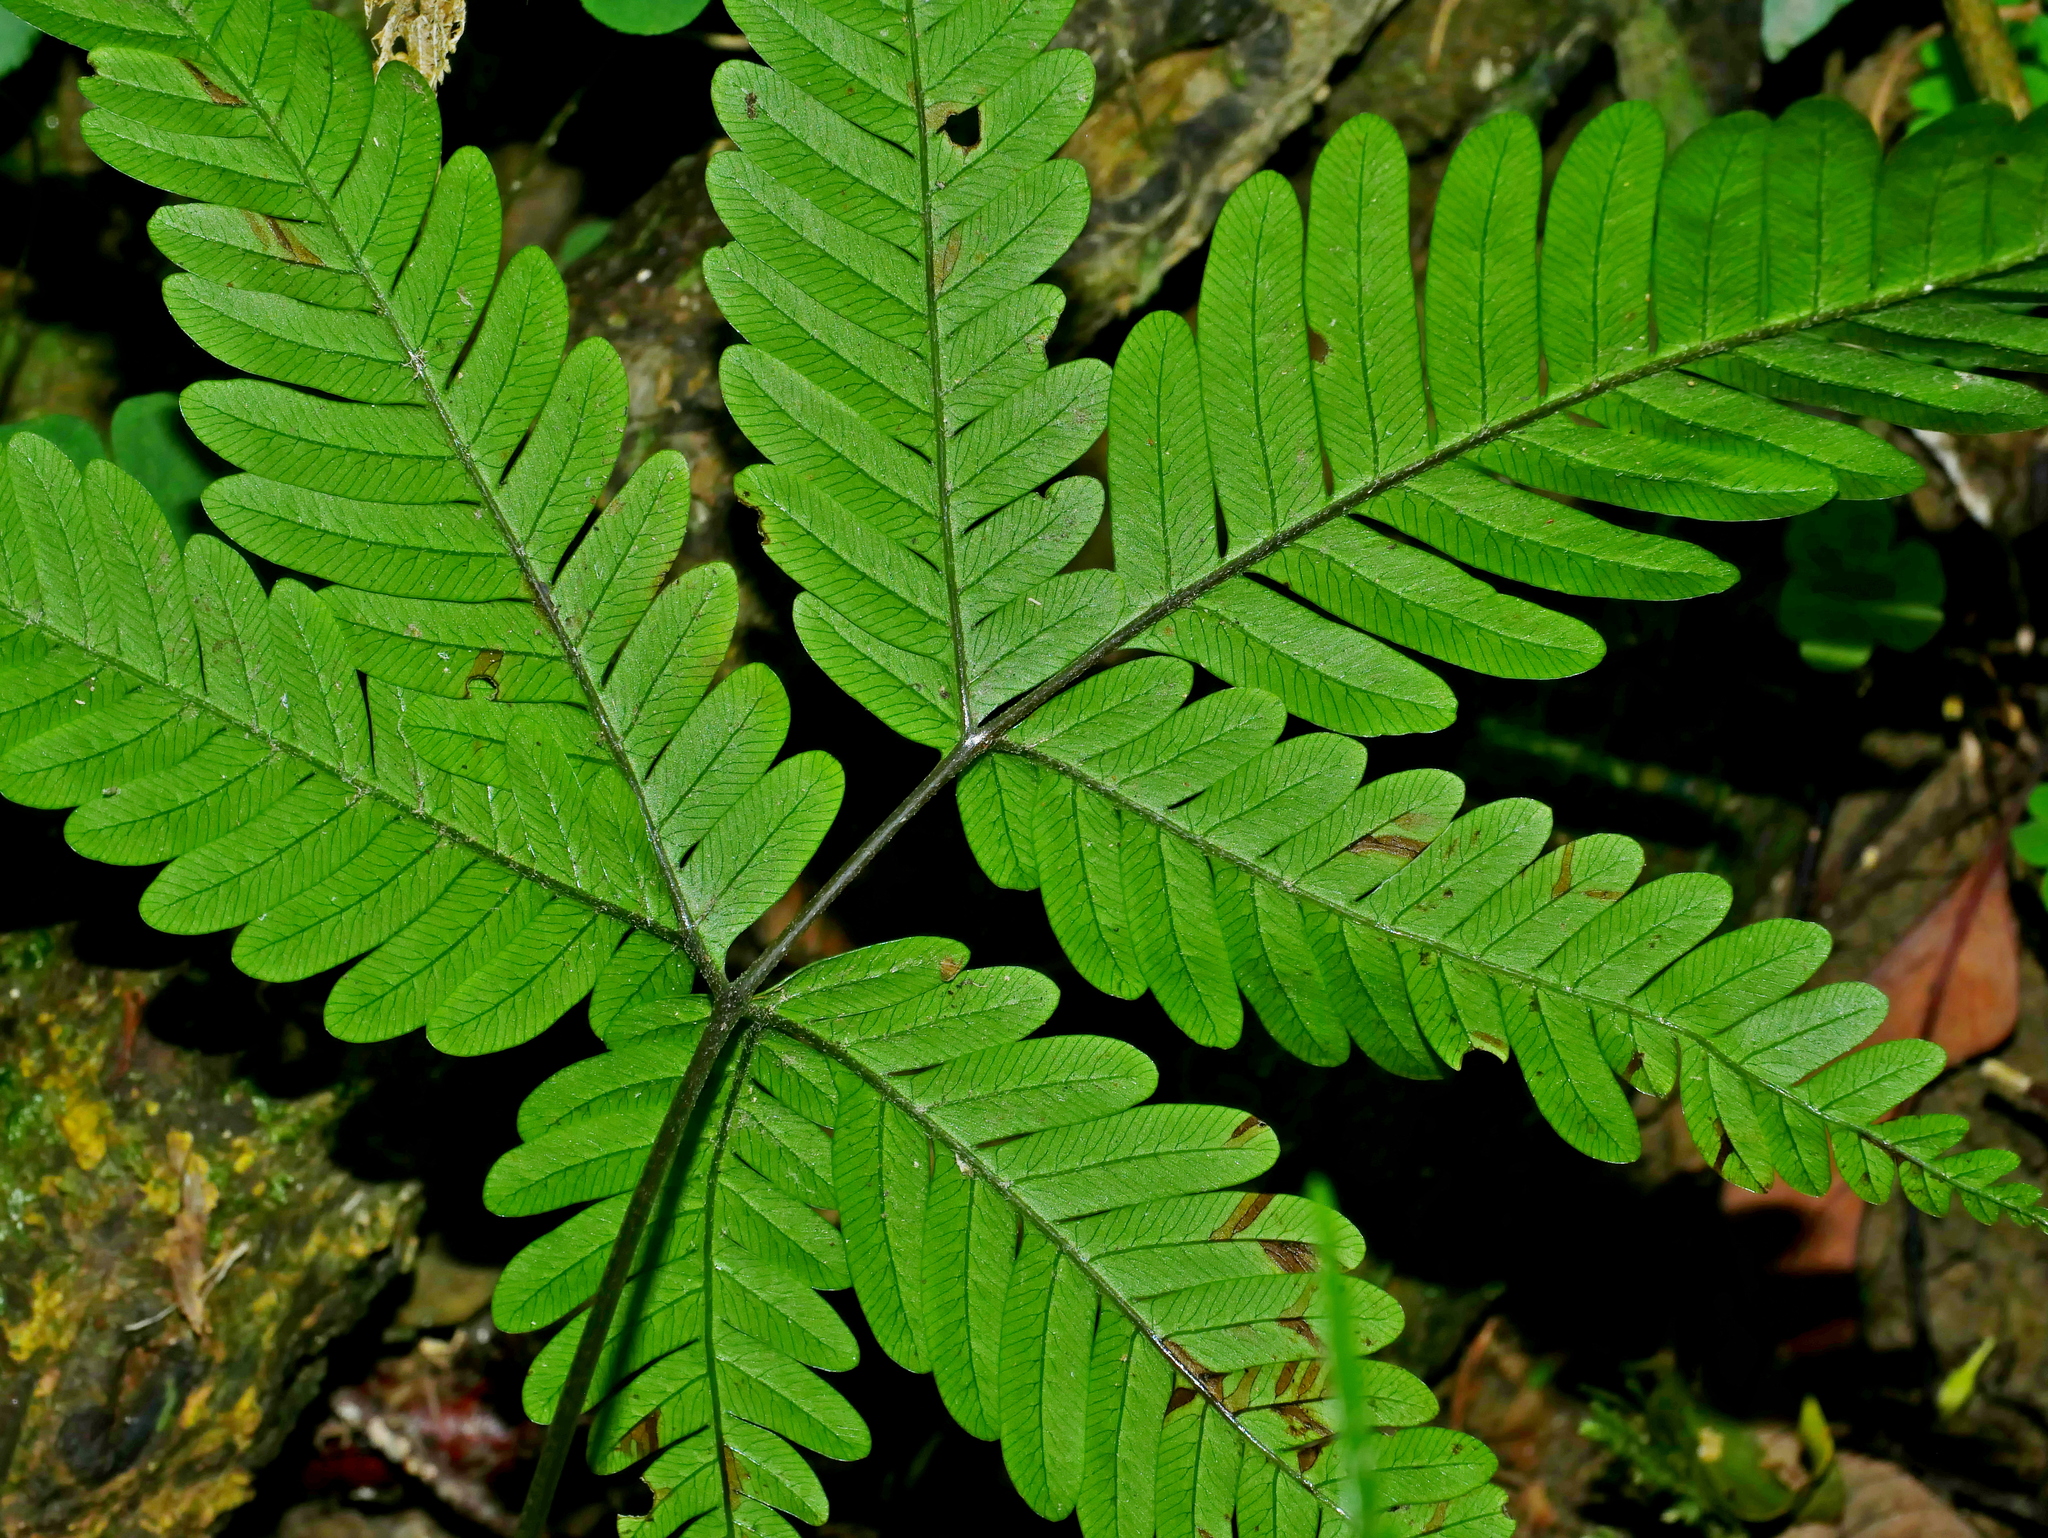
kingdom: Plantae
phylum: Tracheophyta
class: Polypodiopsida
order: Polypodiales
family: Pteridaceae
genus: Pteris
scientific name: Pteris pseudowulaiensis
